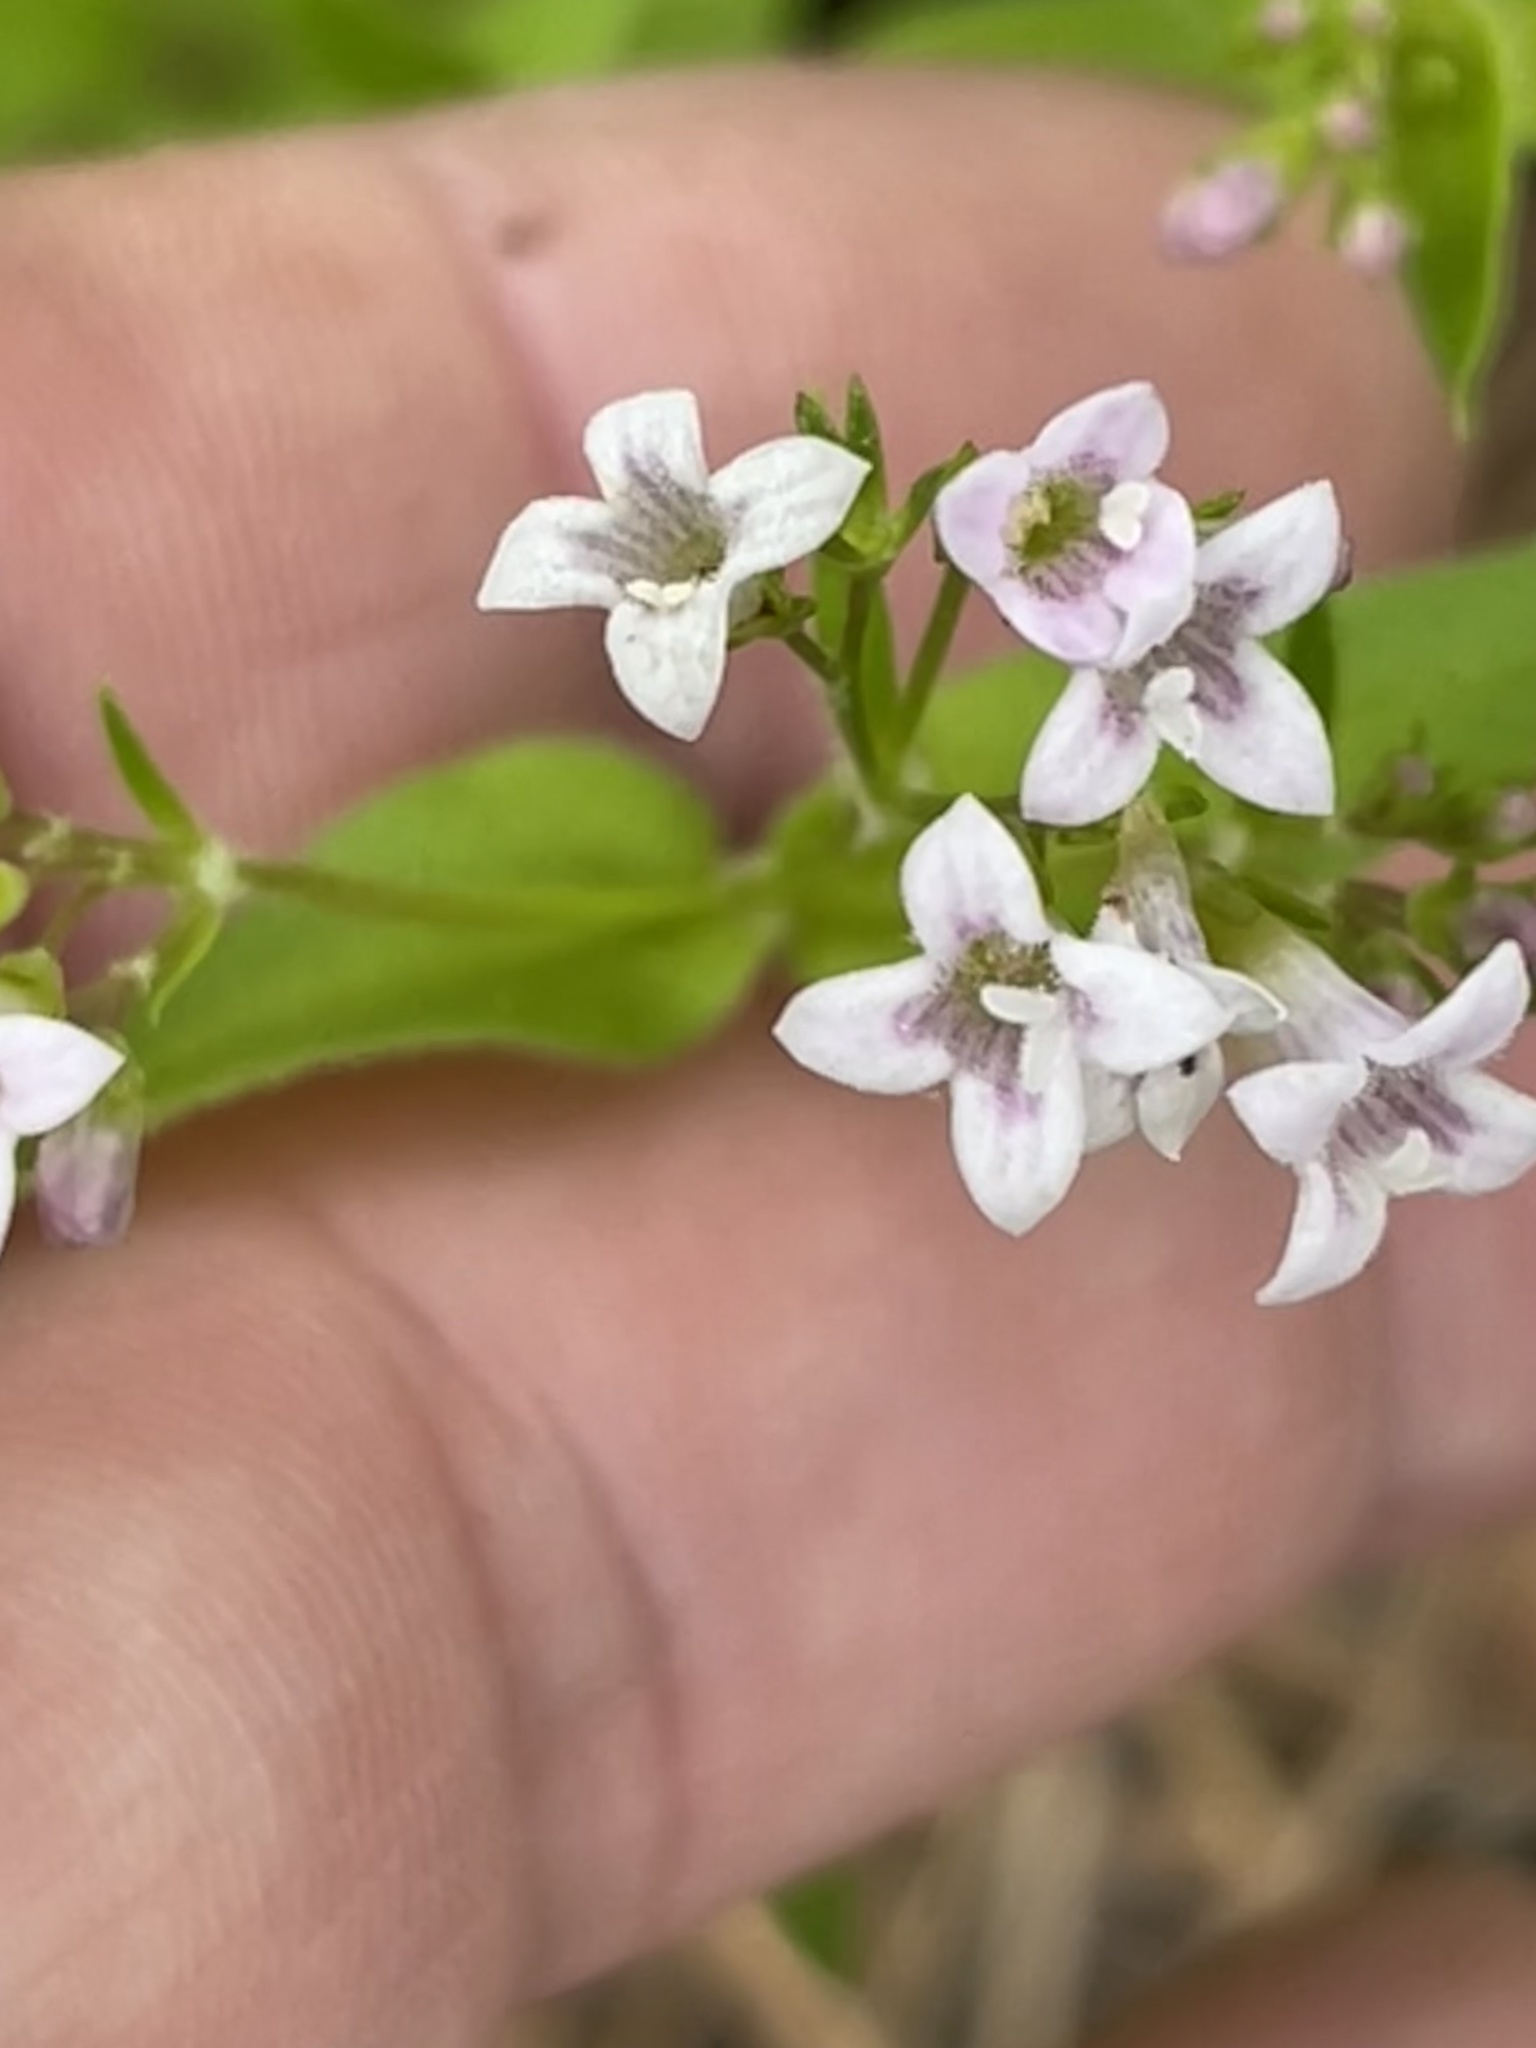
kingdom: Plantae
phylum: Tracheophyta
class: Magnoliopsida
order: Gentianales
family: Rubiaceae
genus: Houstonia
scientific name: Houstonia purpurea
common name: Summer bluet
